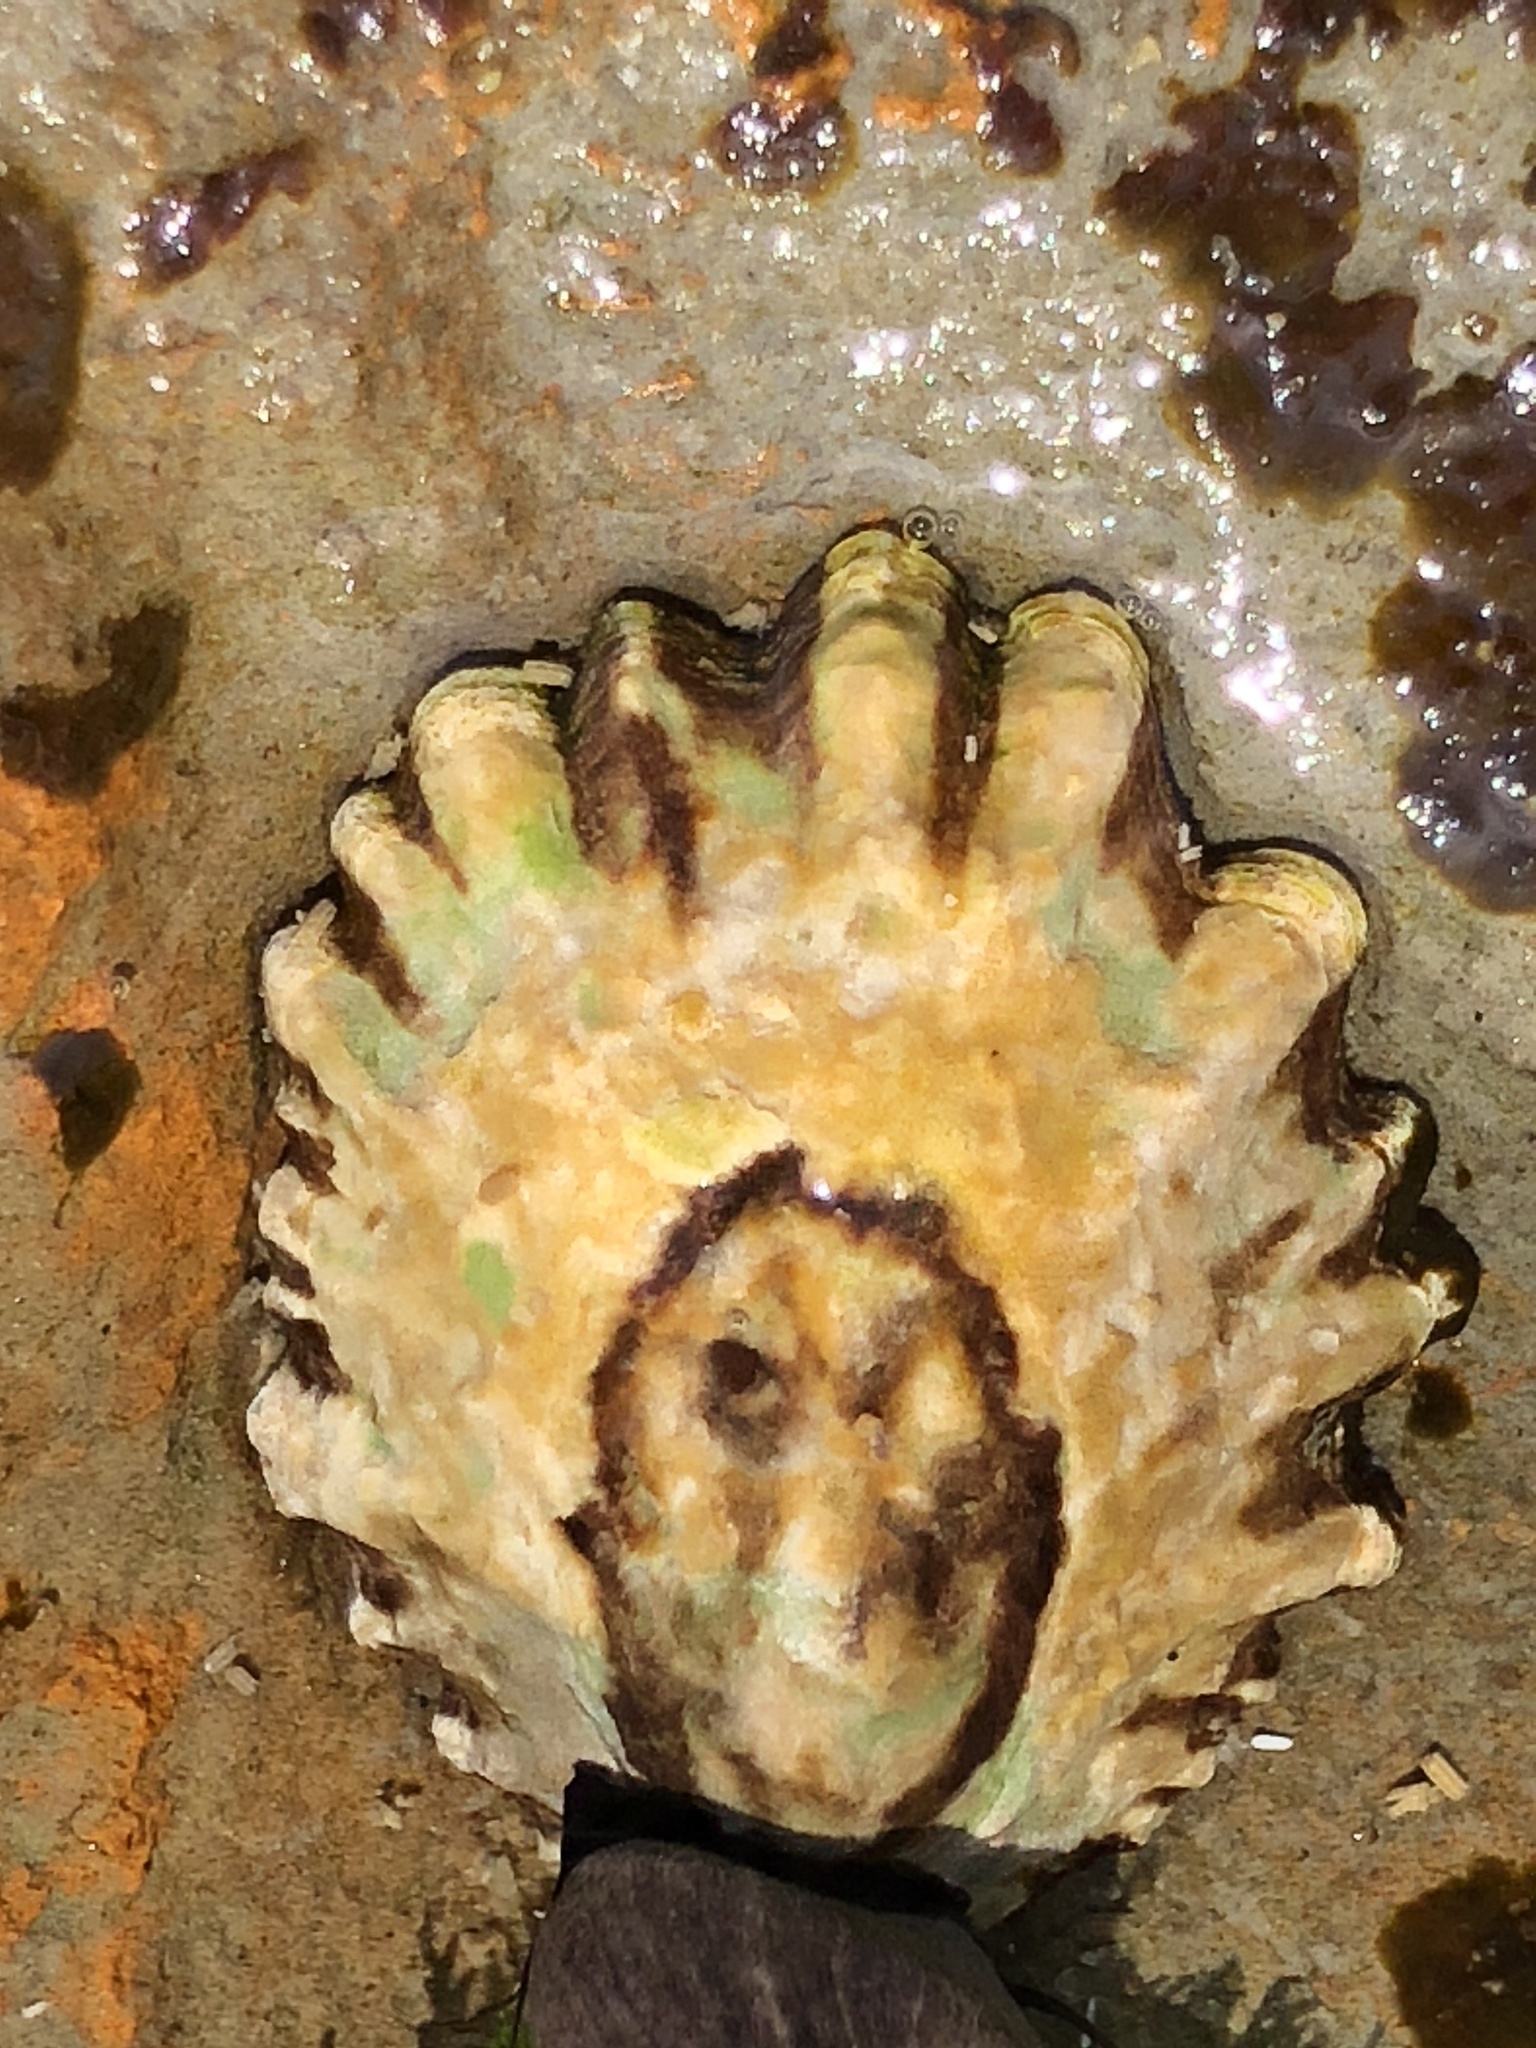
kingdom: Animalia
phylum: Mollusca
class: Gastropoda
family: Lottiidae
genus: Lottia
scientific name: Lottia scabra
